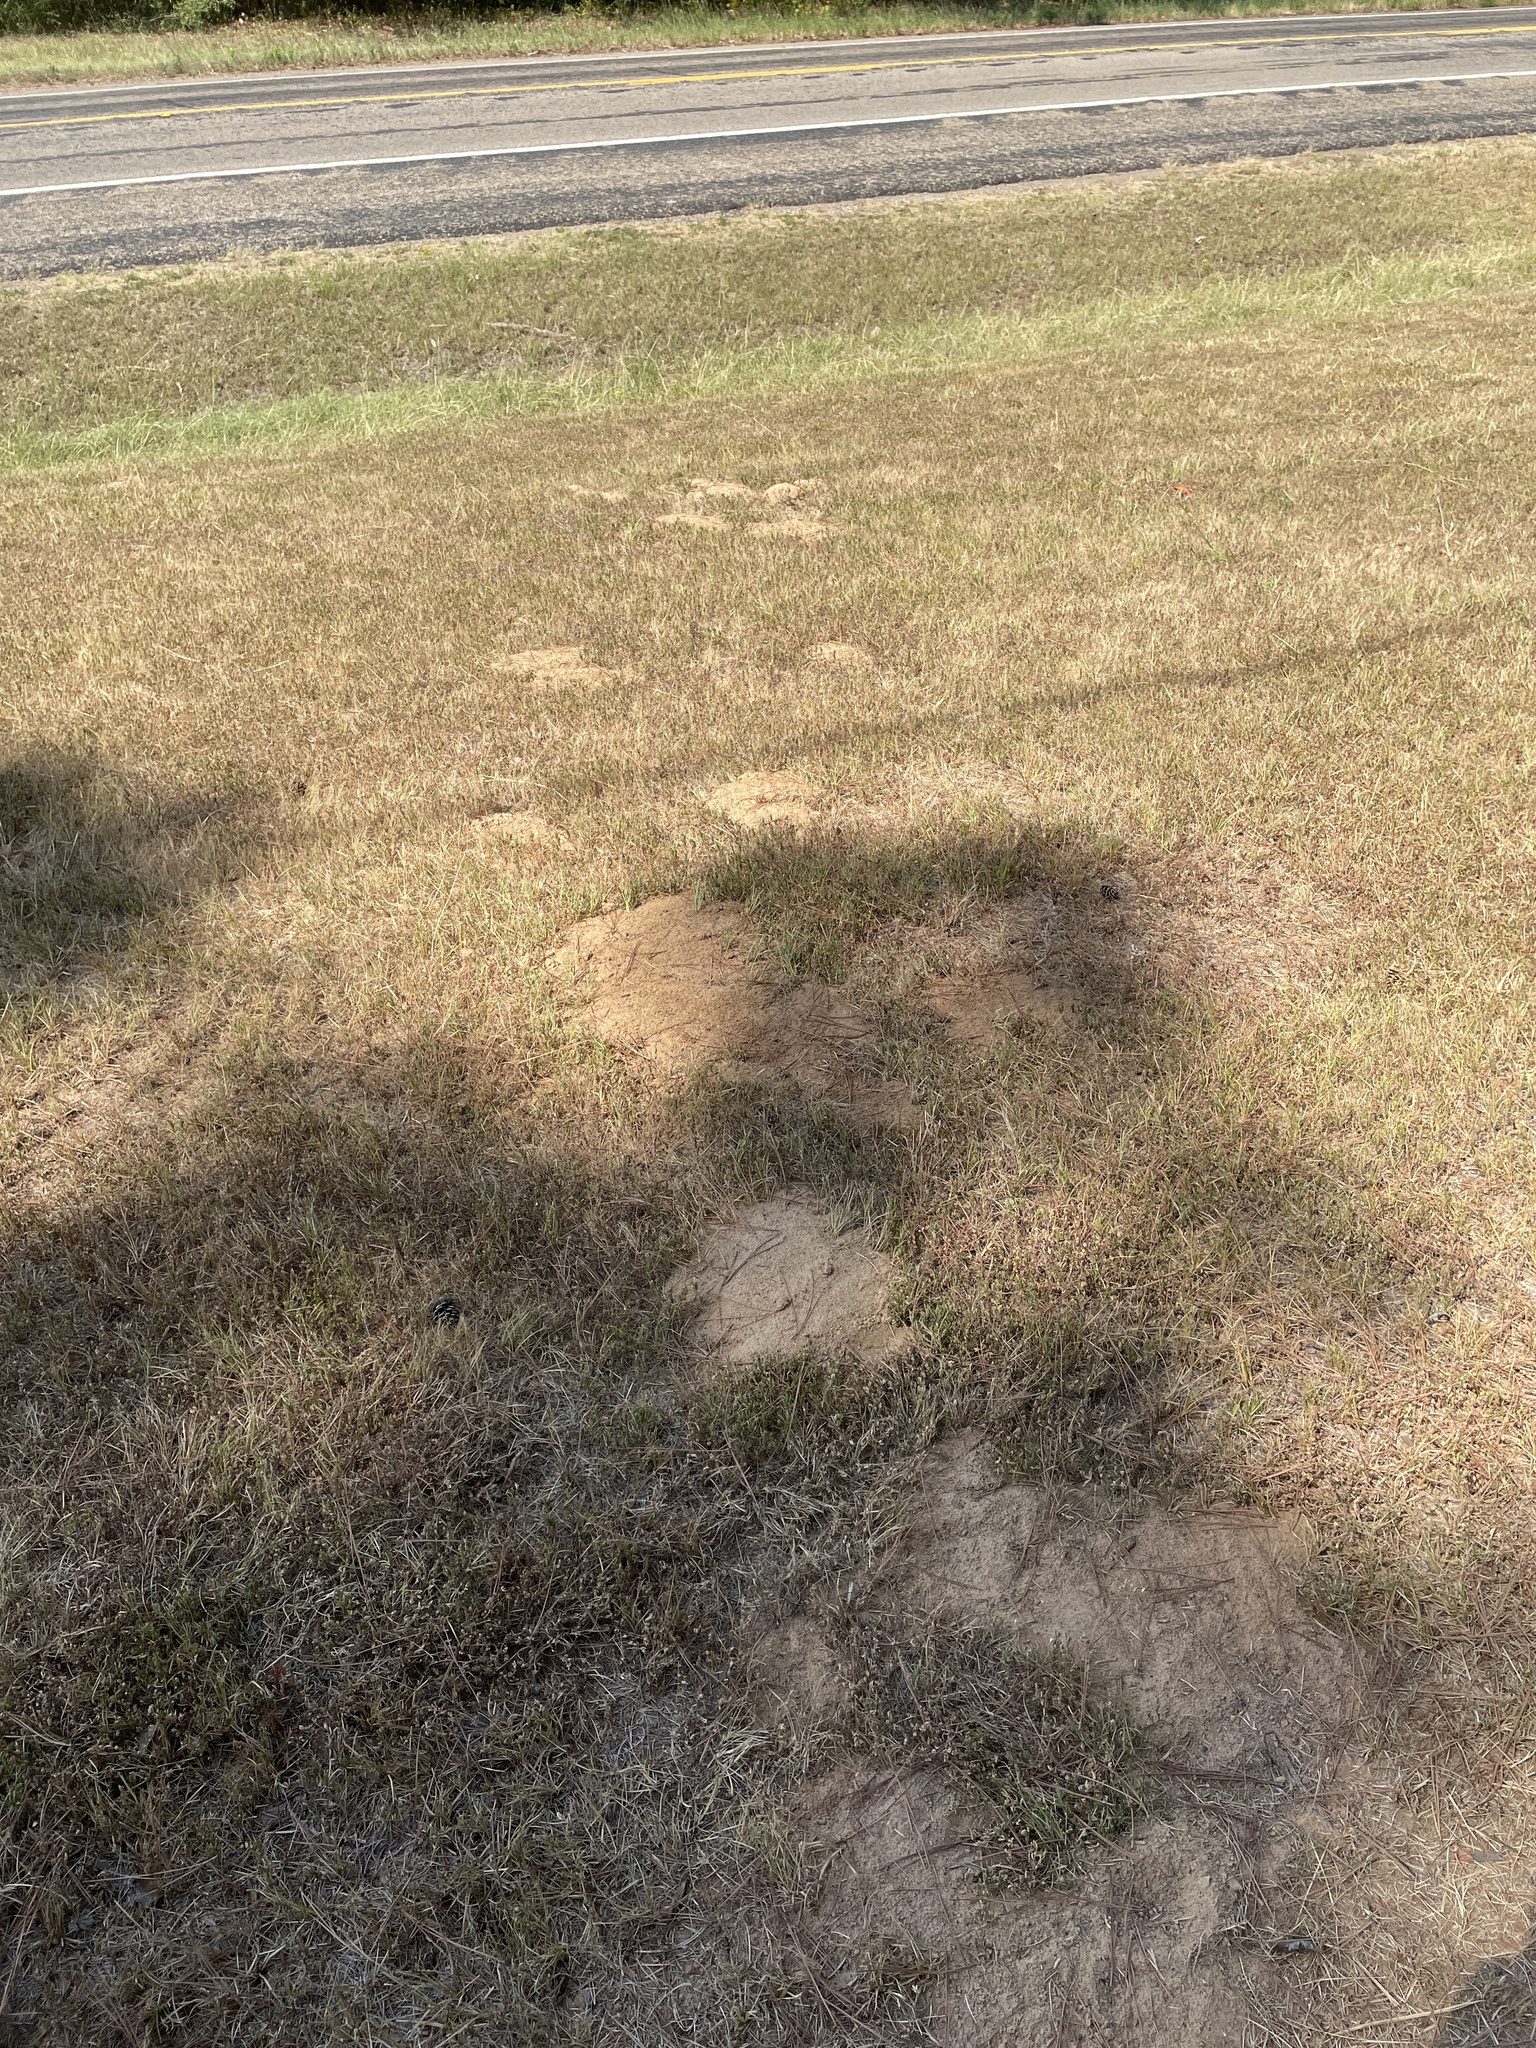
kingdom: Animalia
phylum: Chordata
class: Mammalia
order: Rodentia
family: Geomyidae
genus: Geomys
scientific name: Geomys breviceps
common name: Baird's pocket gopher
